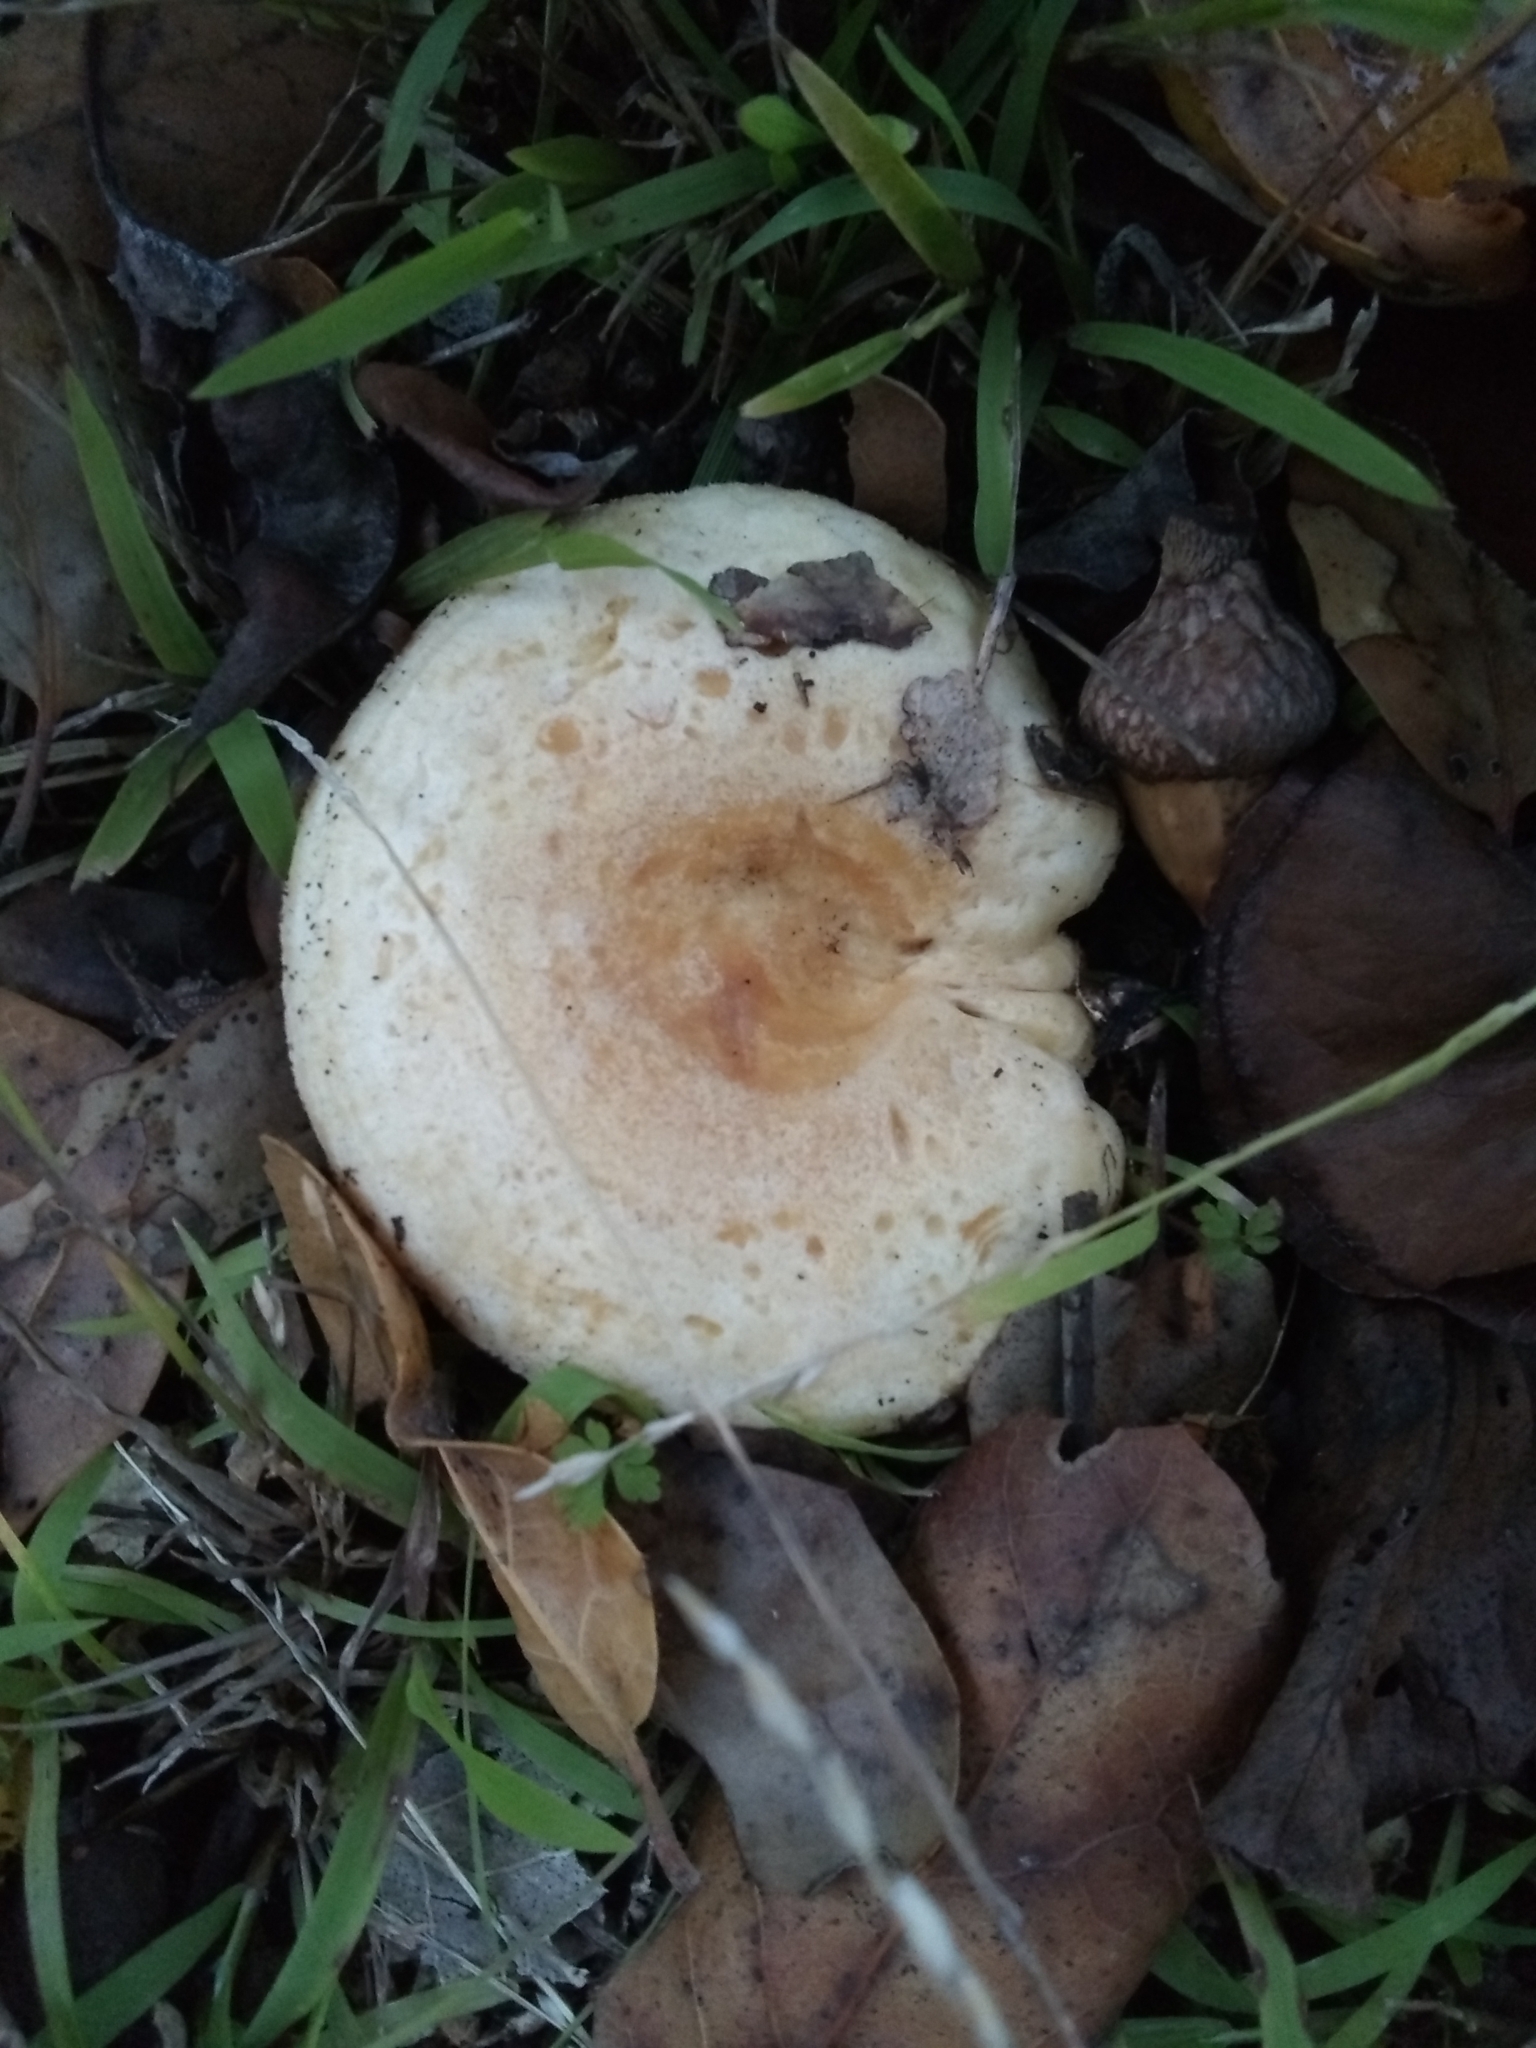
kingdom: Fungi
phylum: Basidiomycota
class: Agaricomycetes
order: Russulales
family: Russulaceae
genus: Lactarius
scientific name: Lactarius alnicola
